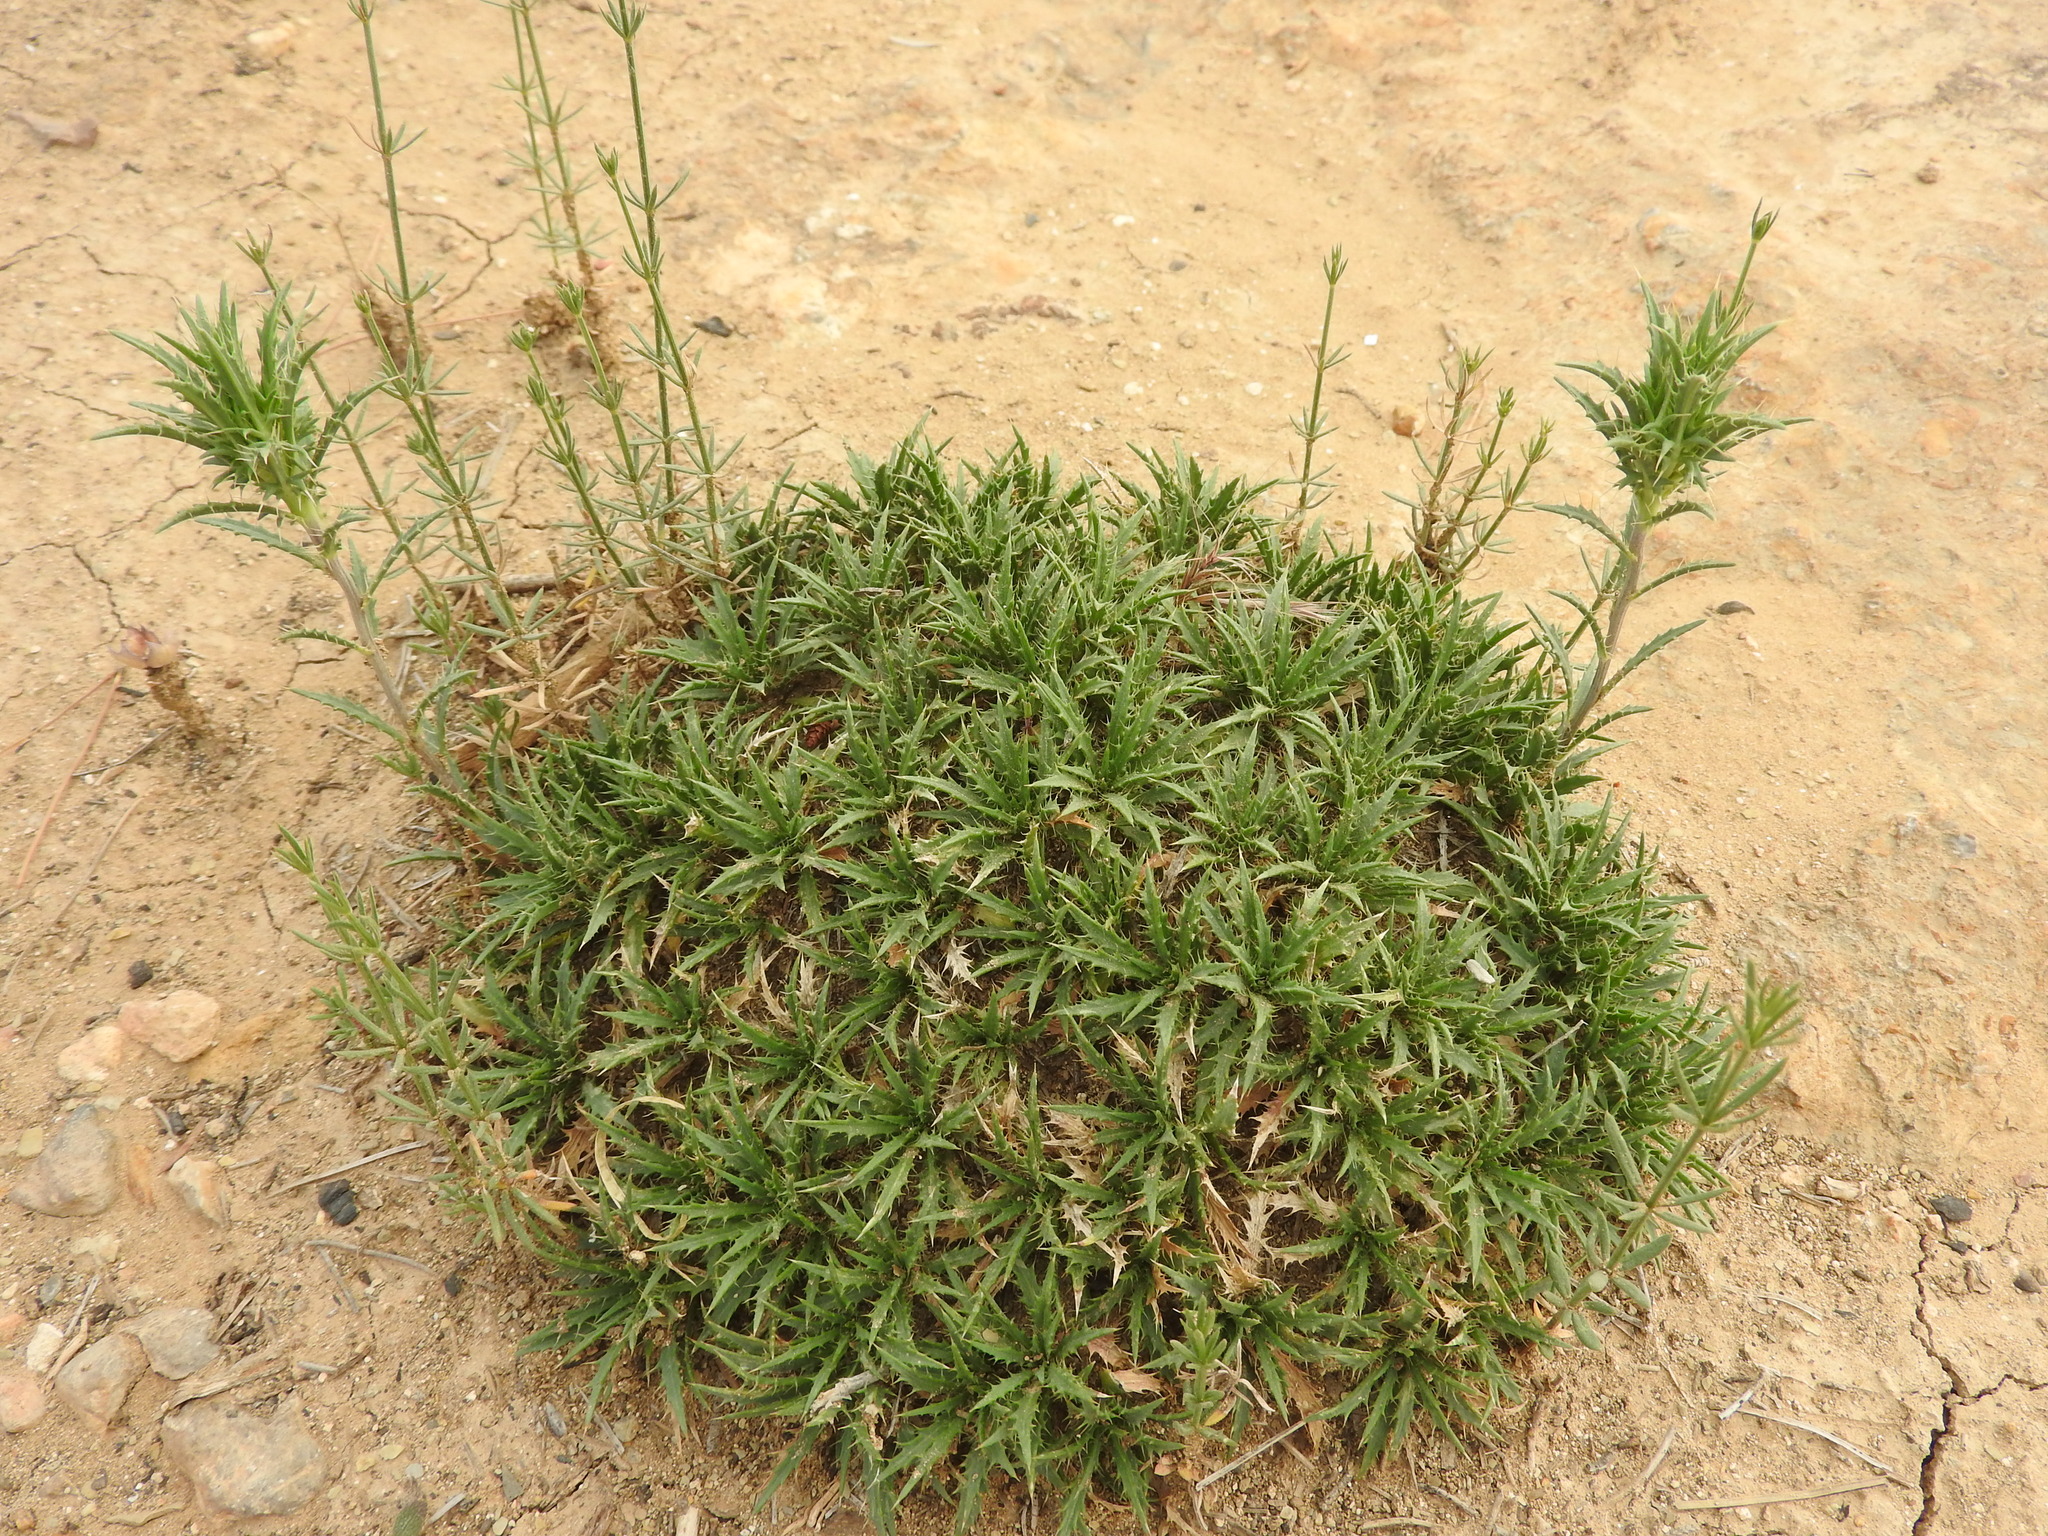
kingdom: Plantae
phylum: Tracheophyta
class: Magnoliopsida
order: Asterales
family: Asteraceae
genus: Atractylis
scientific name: Atractylis caespitosa
